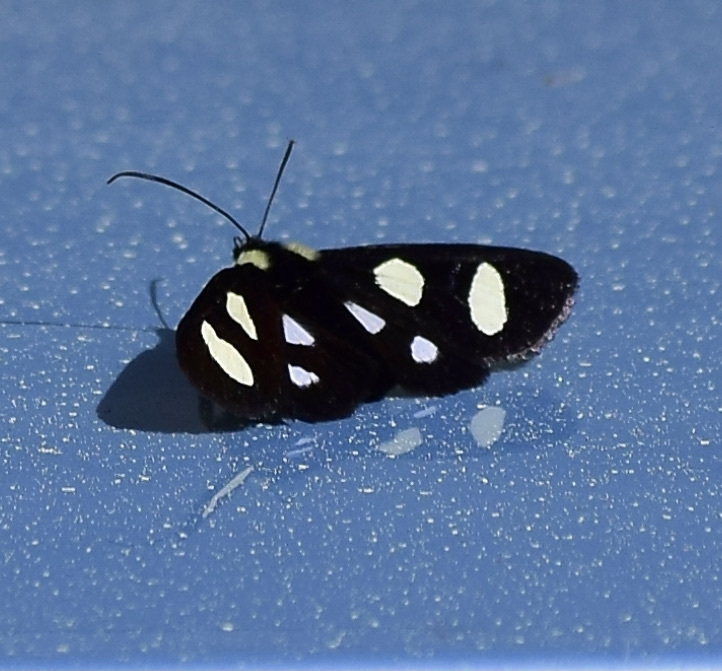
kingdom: Animalia
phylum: Arthropoda
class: Insecta
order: Lepidoptera
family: Noctuidae
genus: Alypia
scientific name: Alypia octomaculata
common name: Eight-spotted forester
